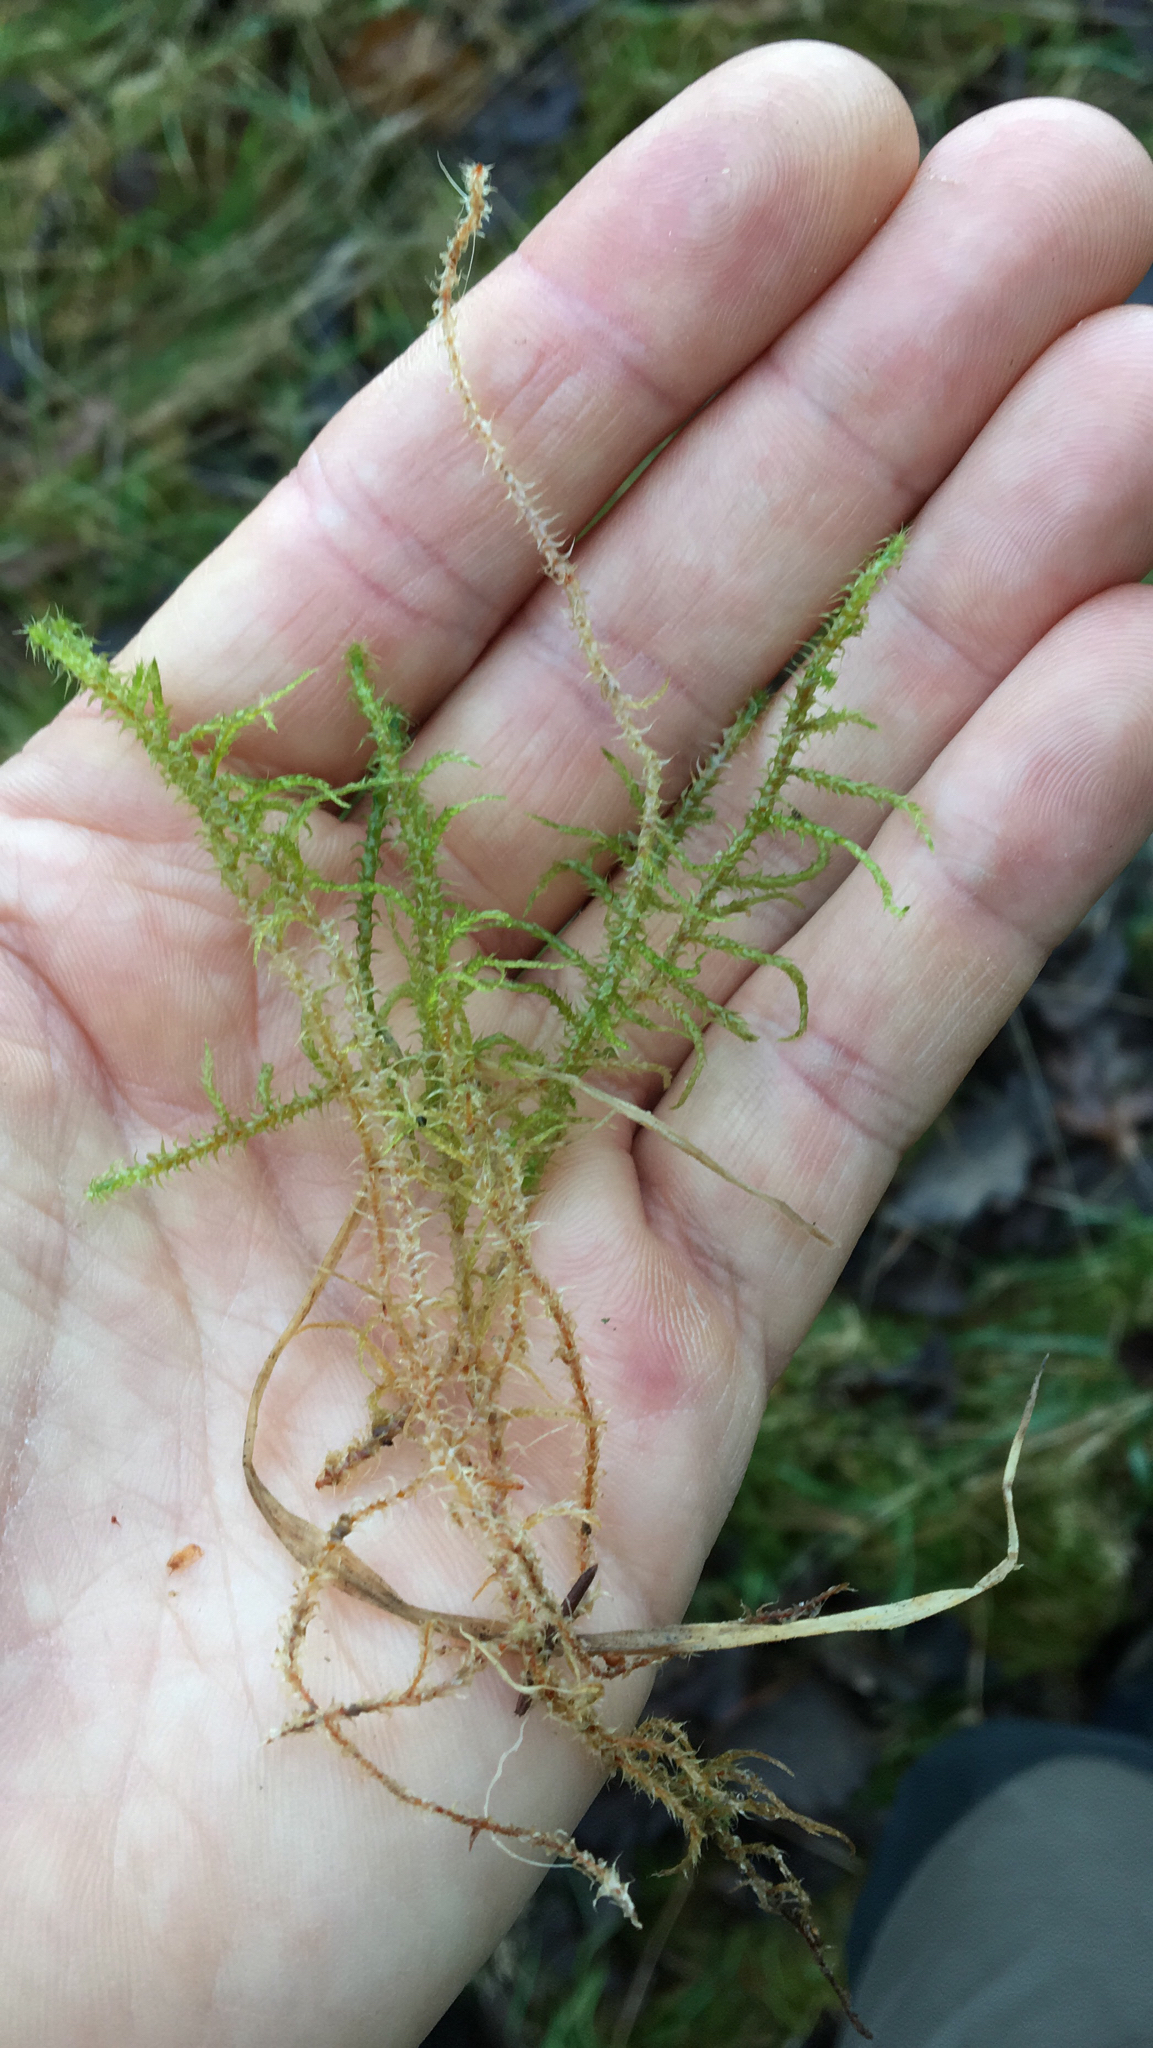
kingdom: Plantae
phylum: Bryophyta
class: Bryopsida
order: Hypnales
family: Hylocomiaceae
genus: Rhytidiadelphus
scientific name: Rhytidiadelphus squarrosus
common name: Springy turf-moss
